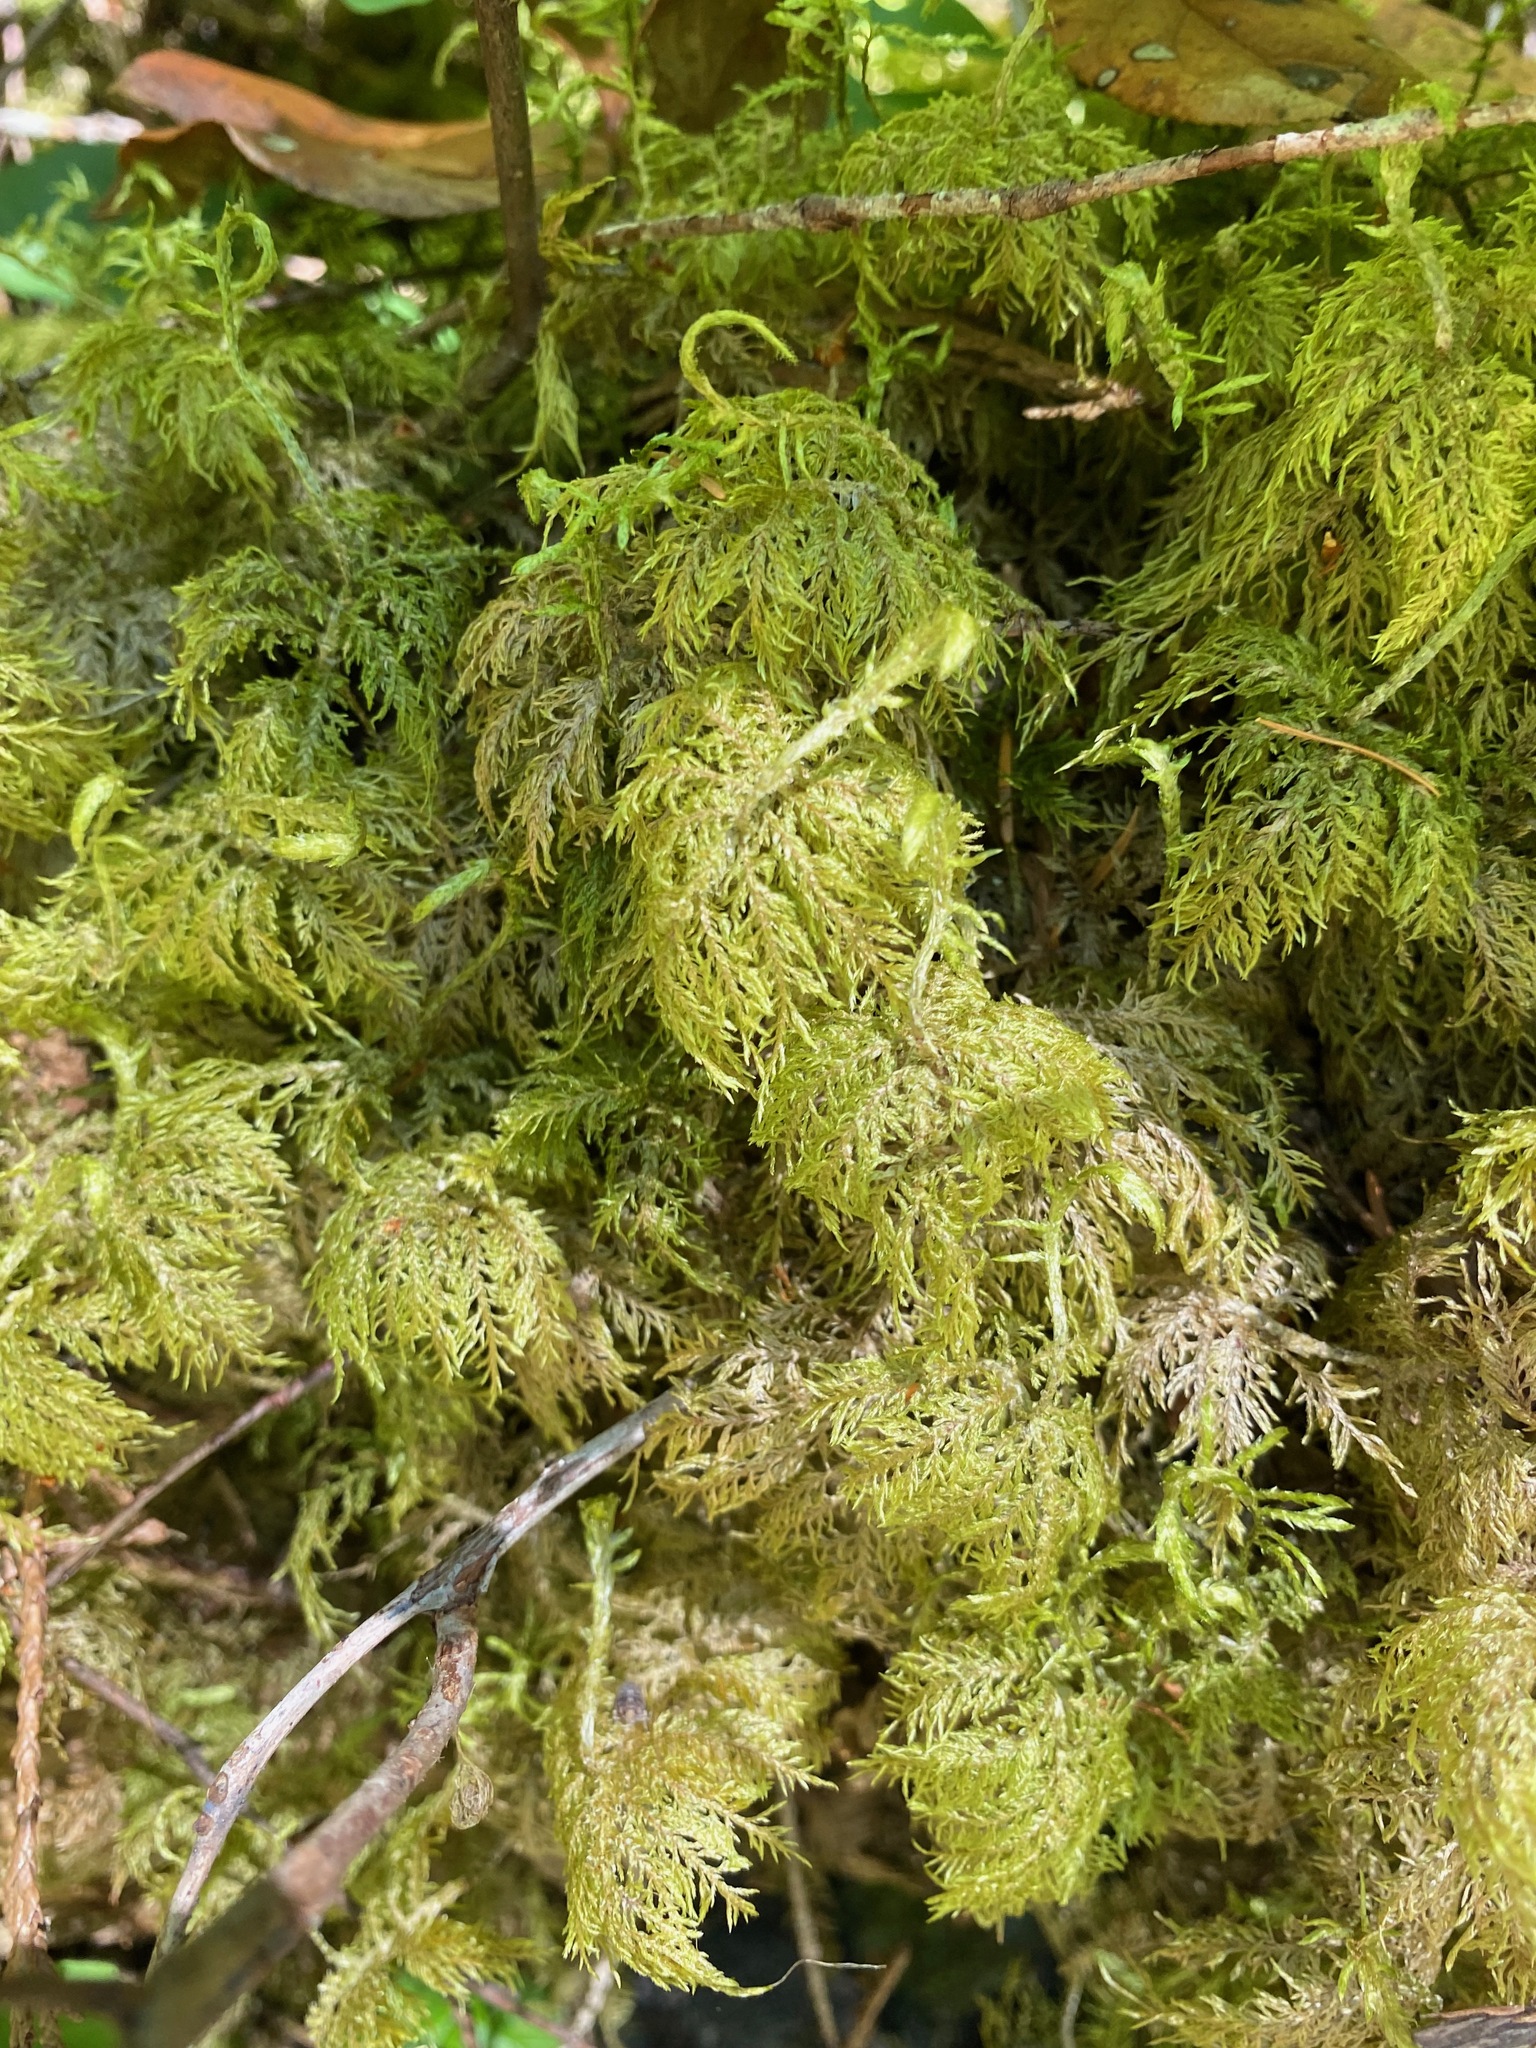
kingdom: Plantae
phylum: Bryophyta
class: Bryopsida
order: Hypnales
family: Hylocomiaceae
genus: Hylocomium
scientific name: Hylocomium splendens
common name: Stairstep moss
